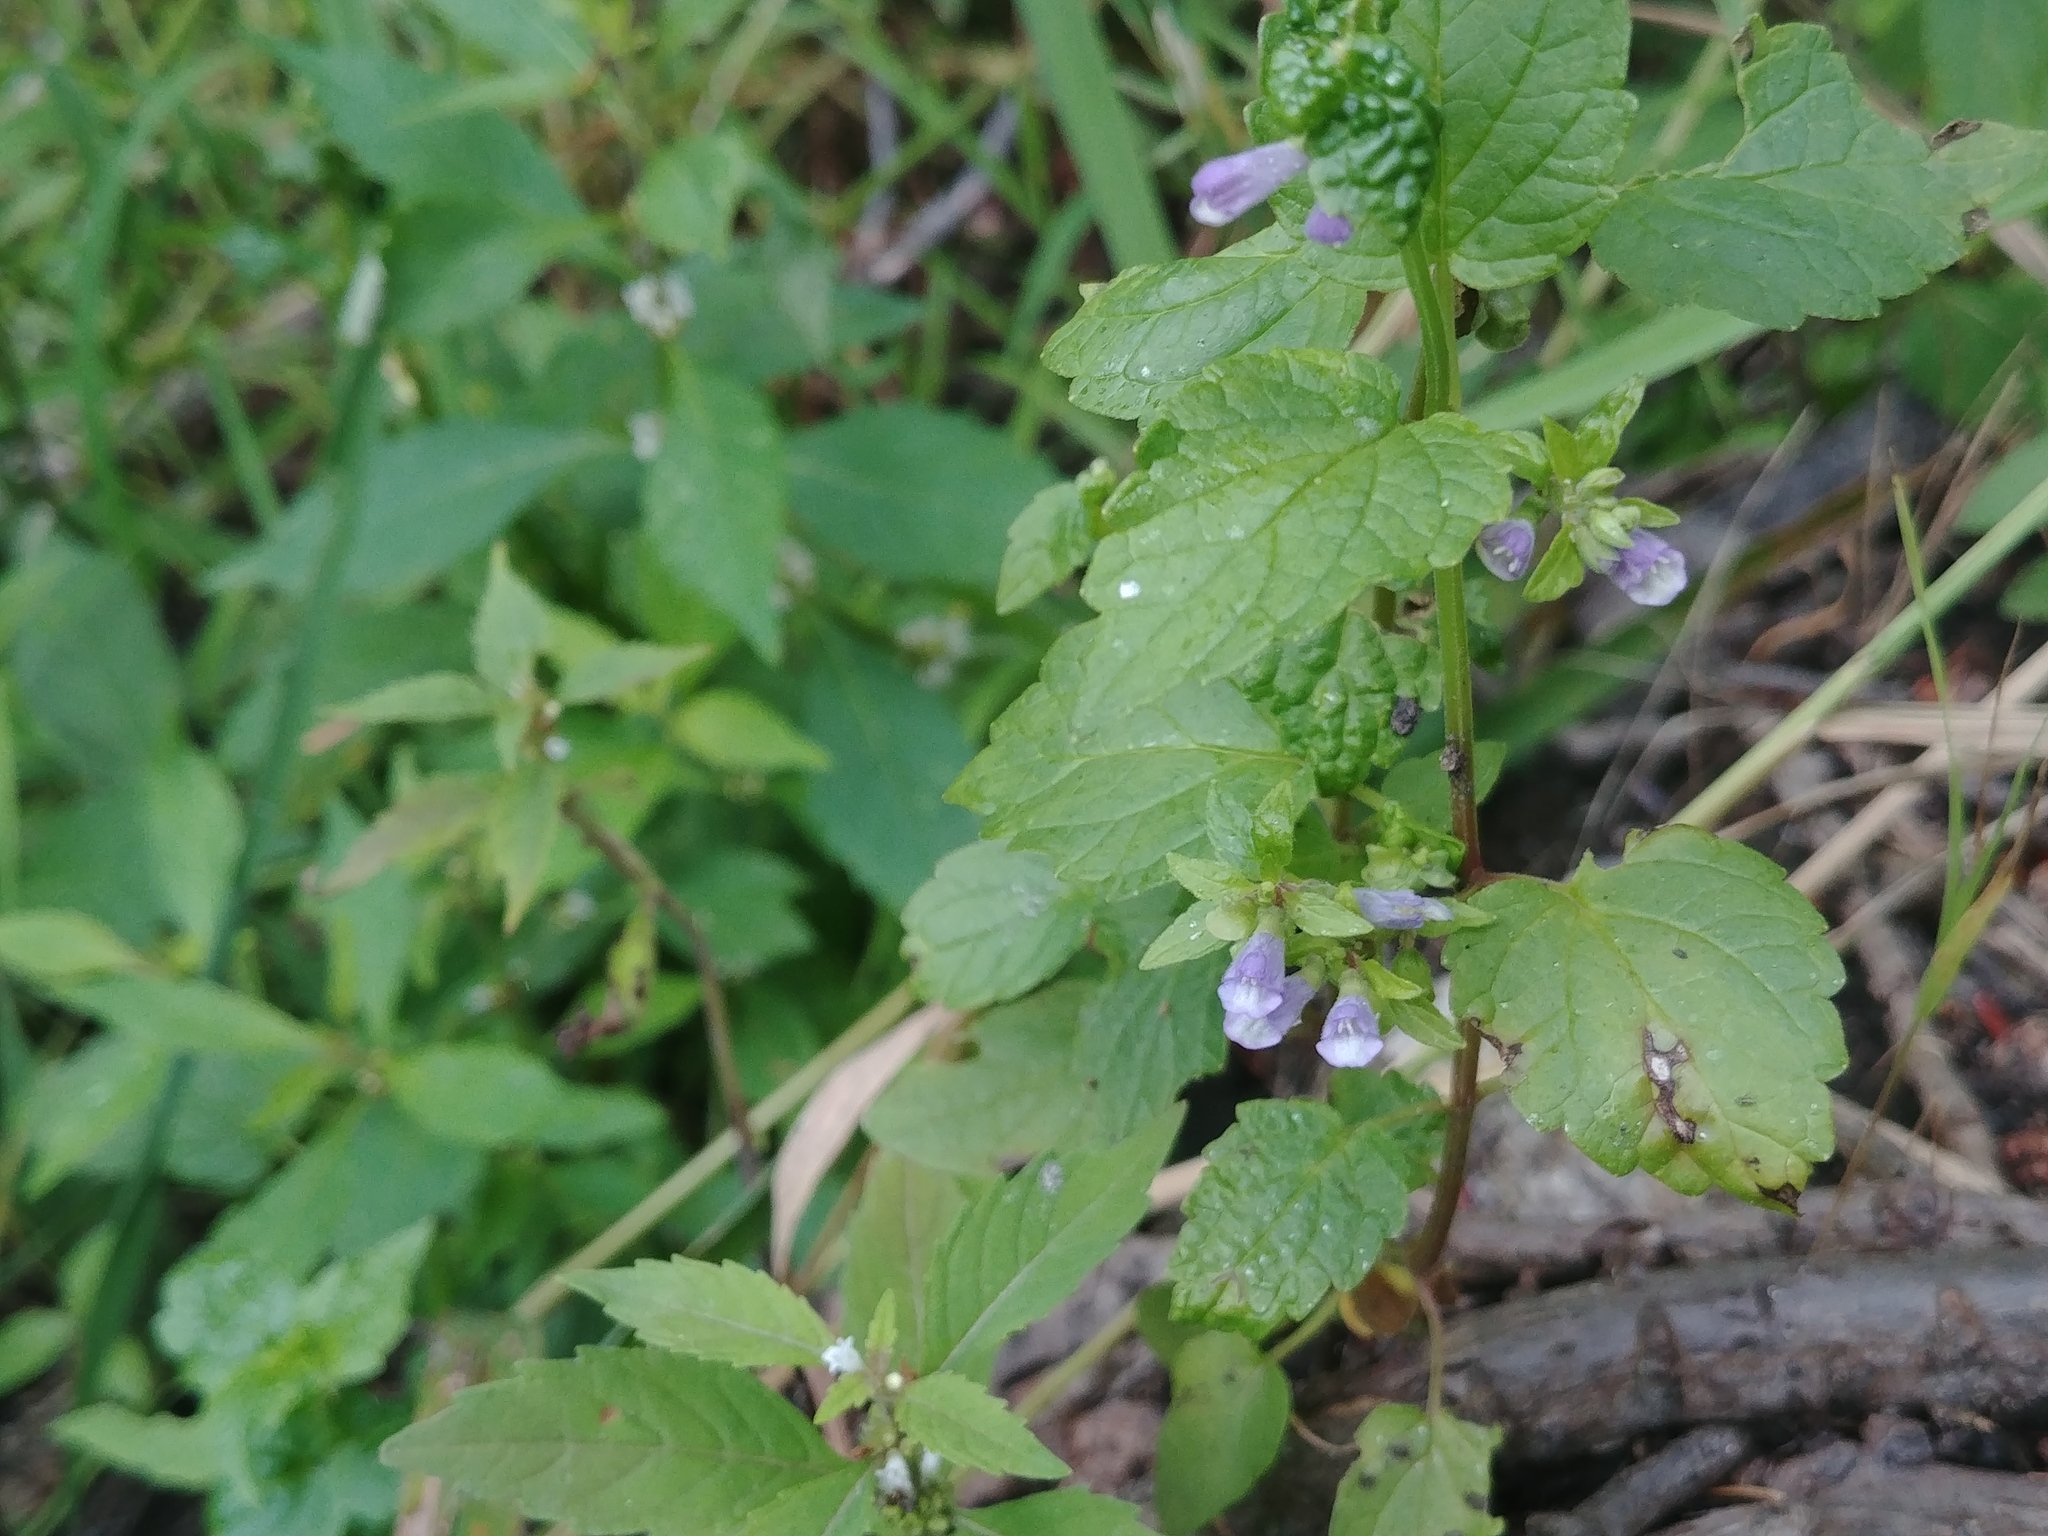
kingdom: Plantae
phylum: Tracheophyta
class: Magnoliopsida
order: Lamiales
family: Lamiaceae
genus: Scutellaria
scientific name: Scutellaria lateriflora
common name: Blue skullcap
